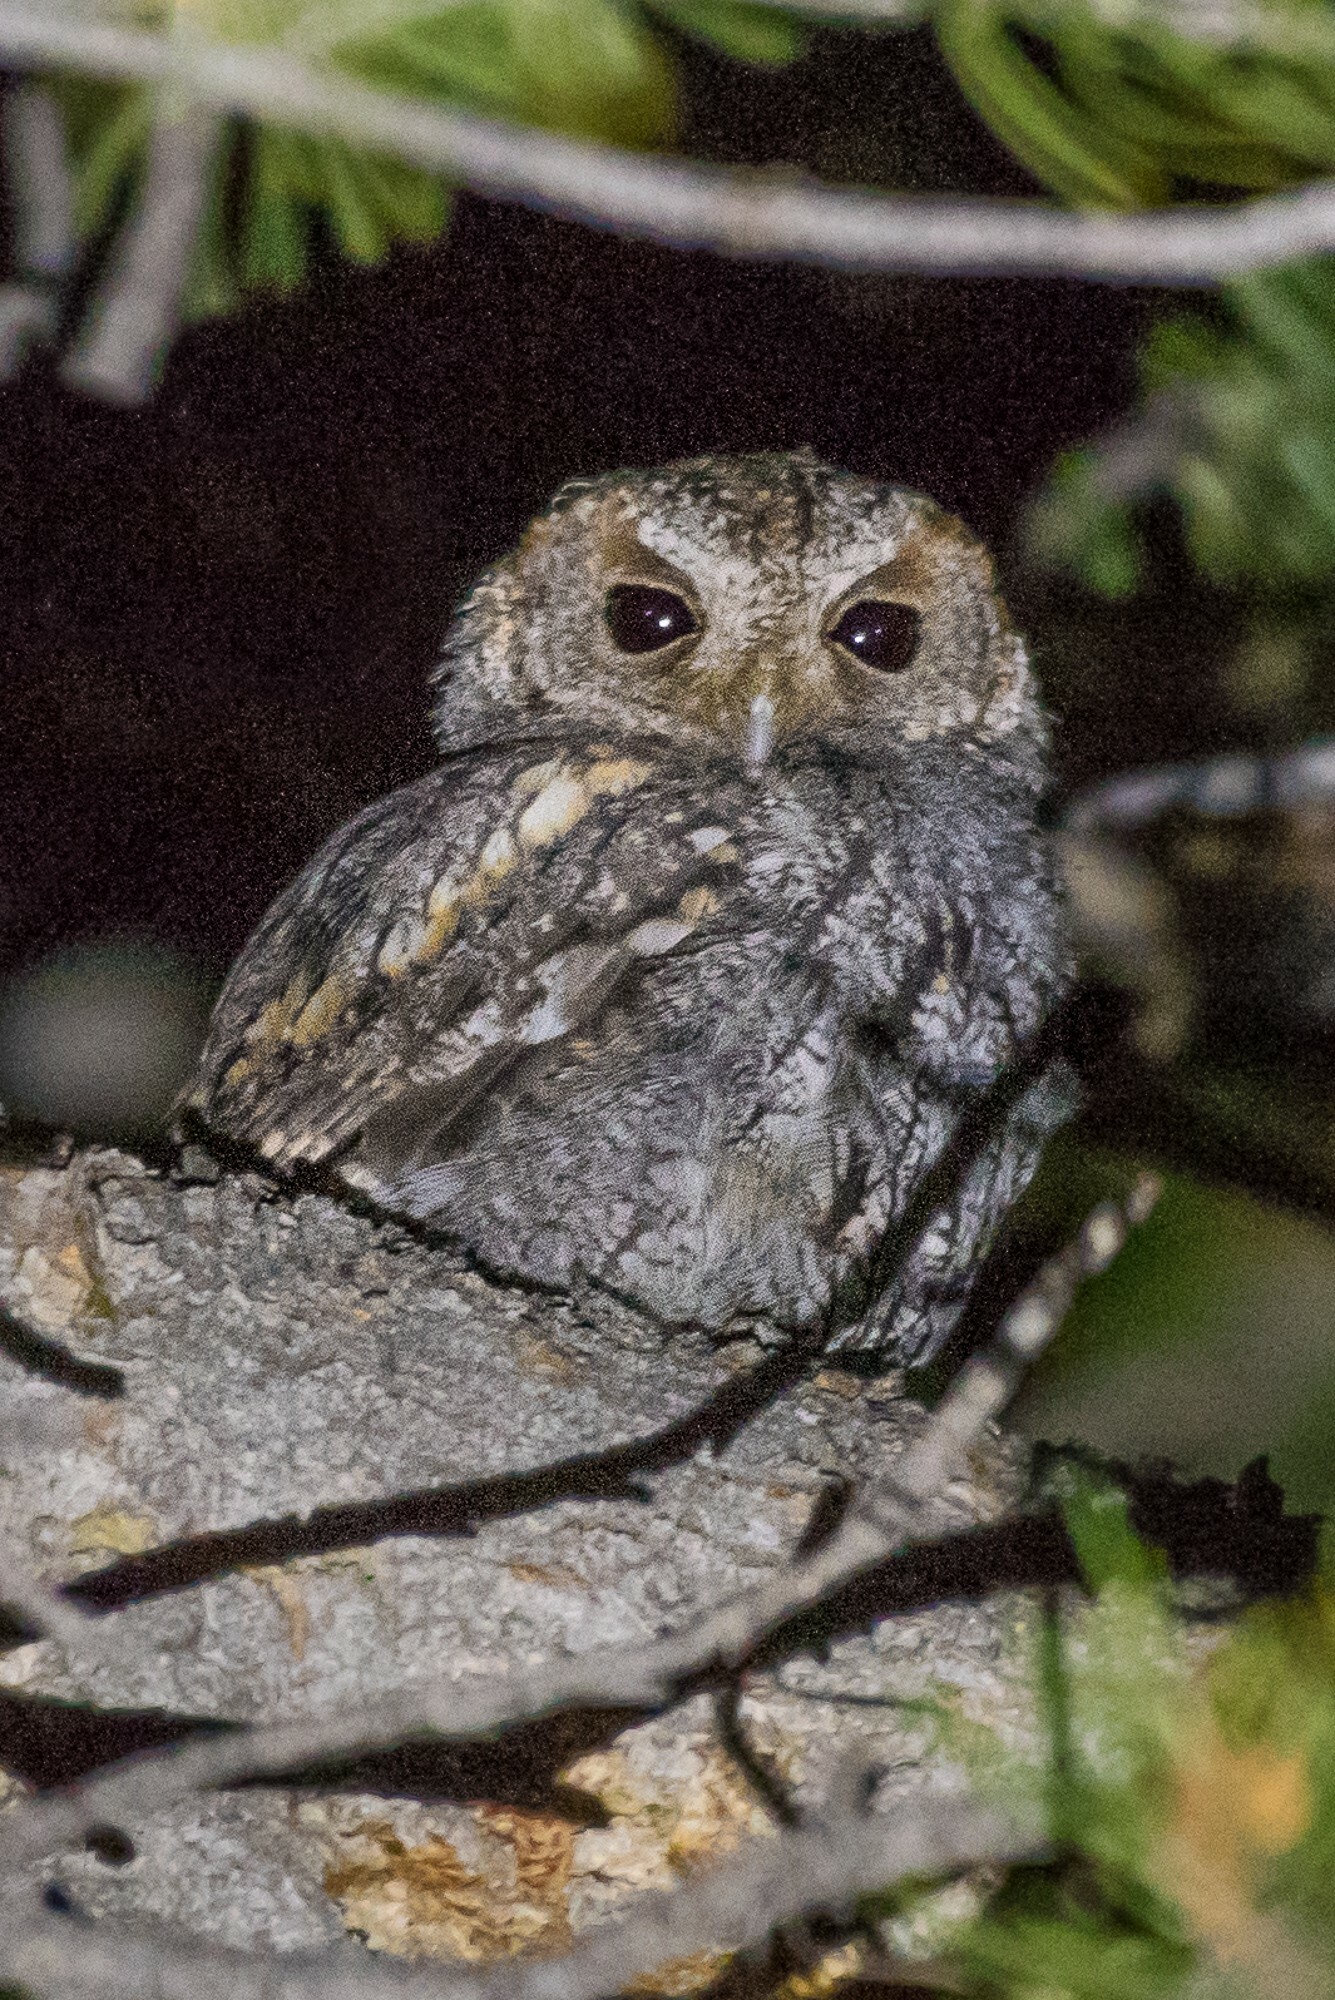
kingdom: Animalia
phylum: Chordata
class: Aves
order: Strigiformes
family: Strigidae
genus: Psiloscops
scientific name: Psiloscops flammeolus
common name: Flammulated owl
